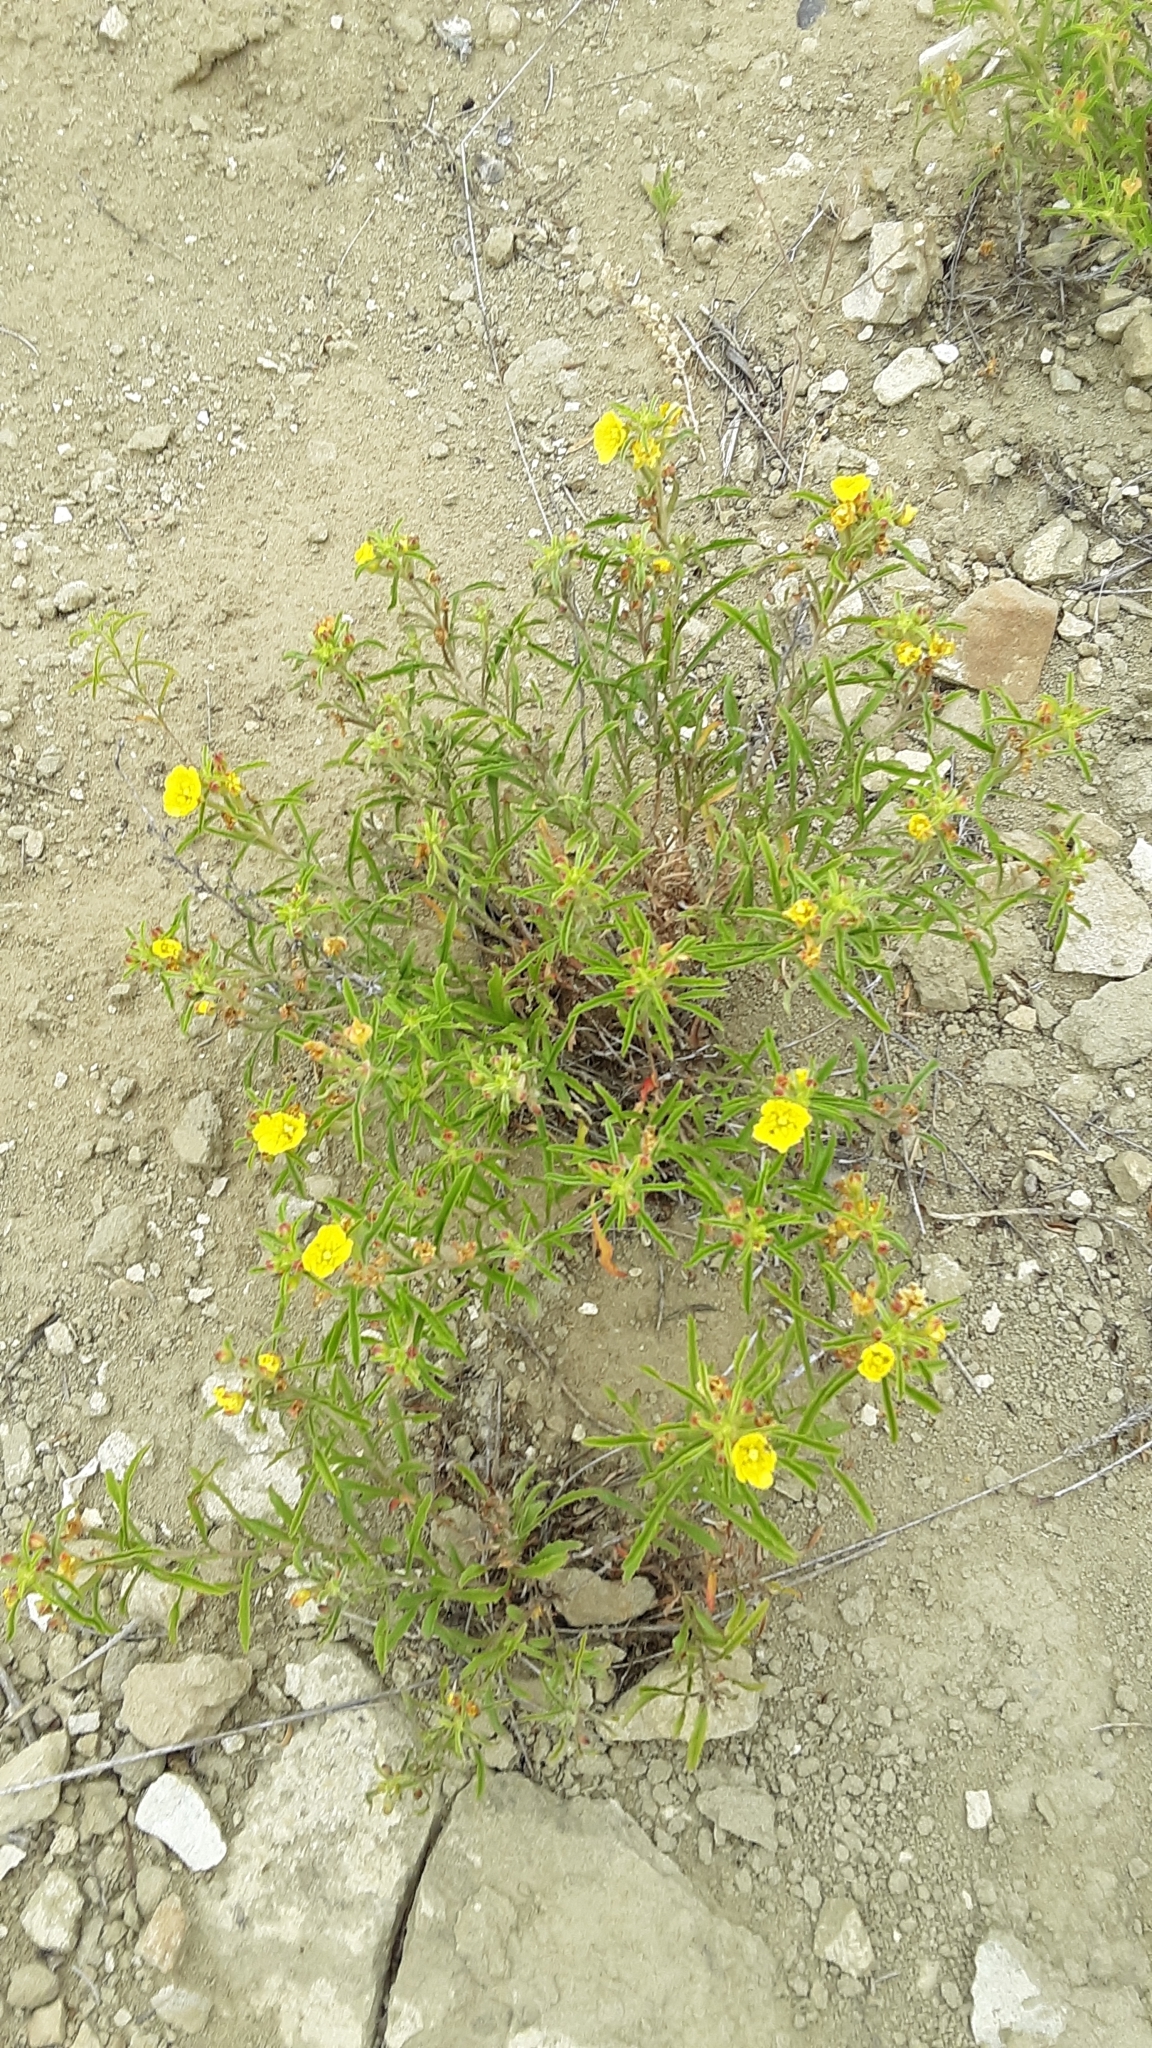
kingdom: Plantae
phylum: Tracheophyta
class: Magnoliopsida
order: Myrtales
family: Onagraceae
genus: Oenothera
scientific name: Oenothera serrulata
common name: Half-shrub calylophus
